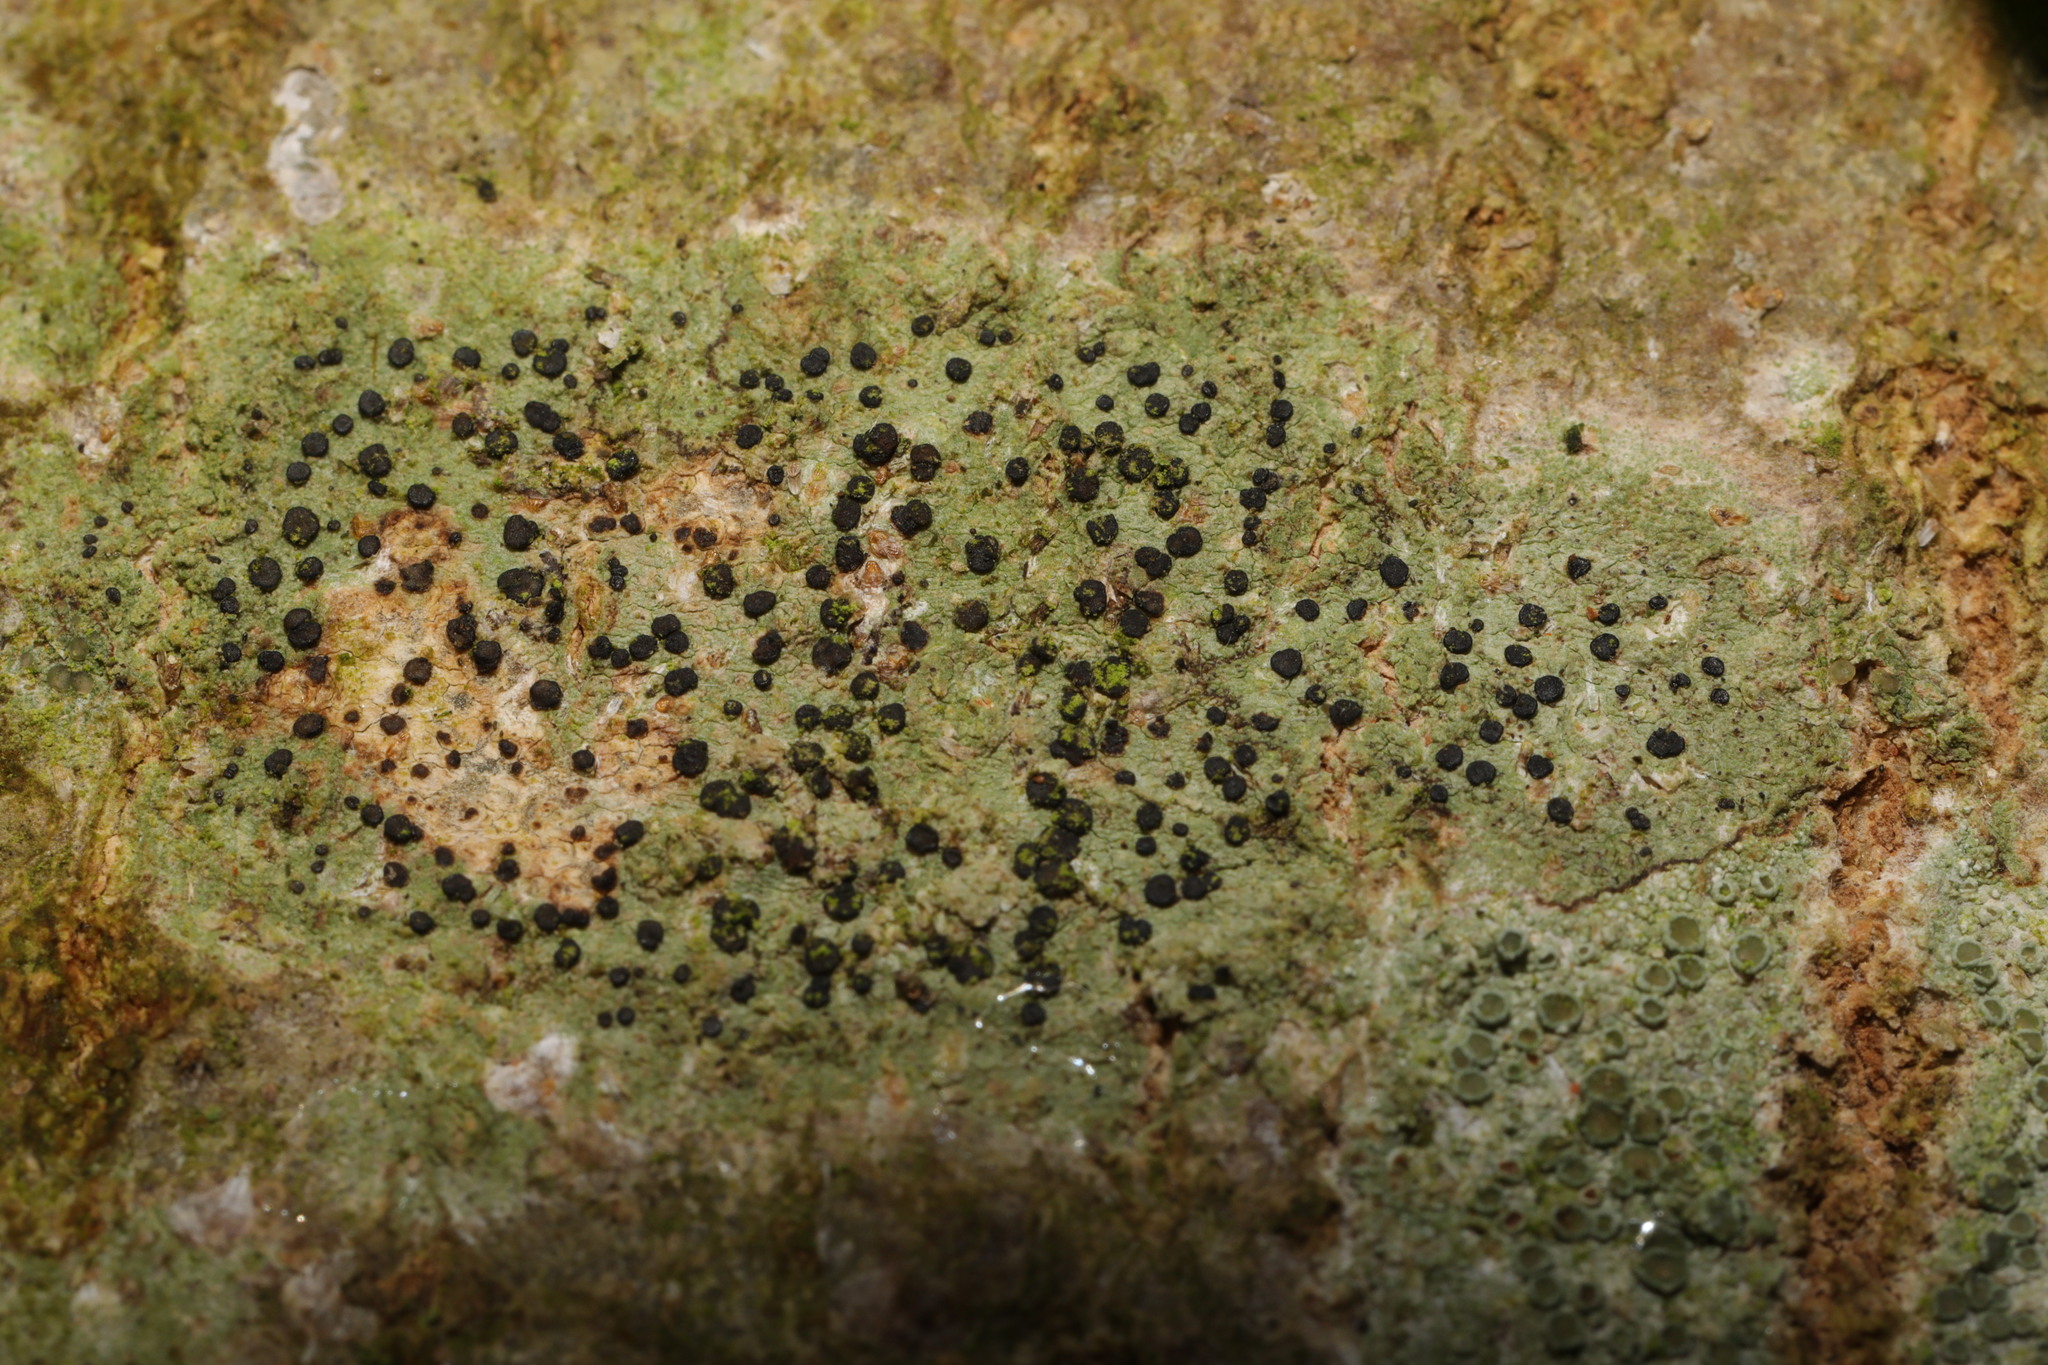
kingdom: Fungi
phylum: Ascomycota
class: Lecanoromycetes
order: Lecanorales
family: Lecanoraceae
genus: Lecidella
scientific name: Lecidella elaeochroma
